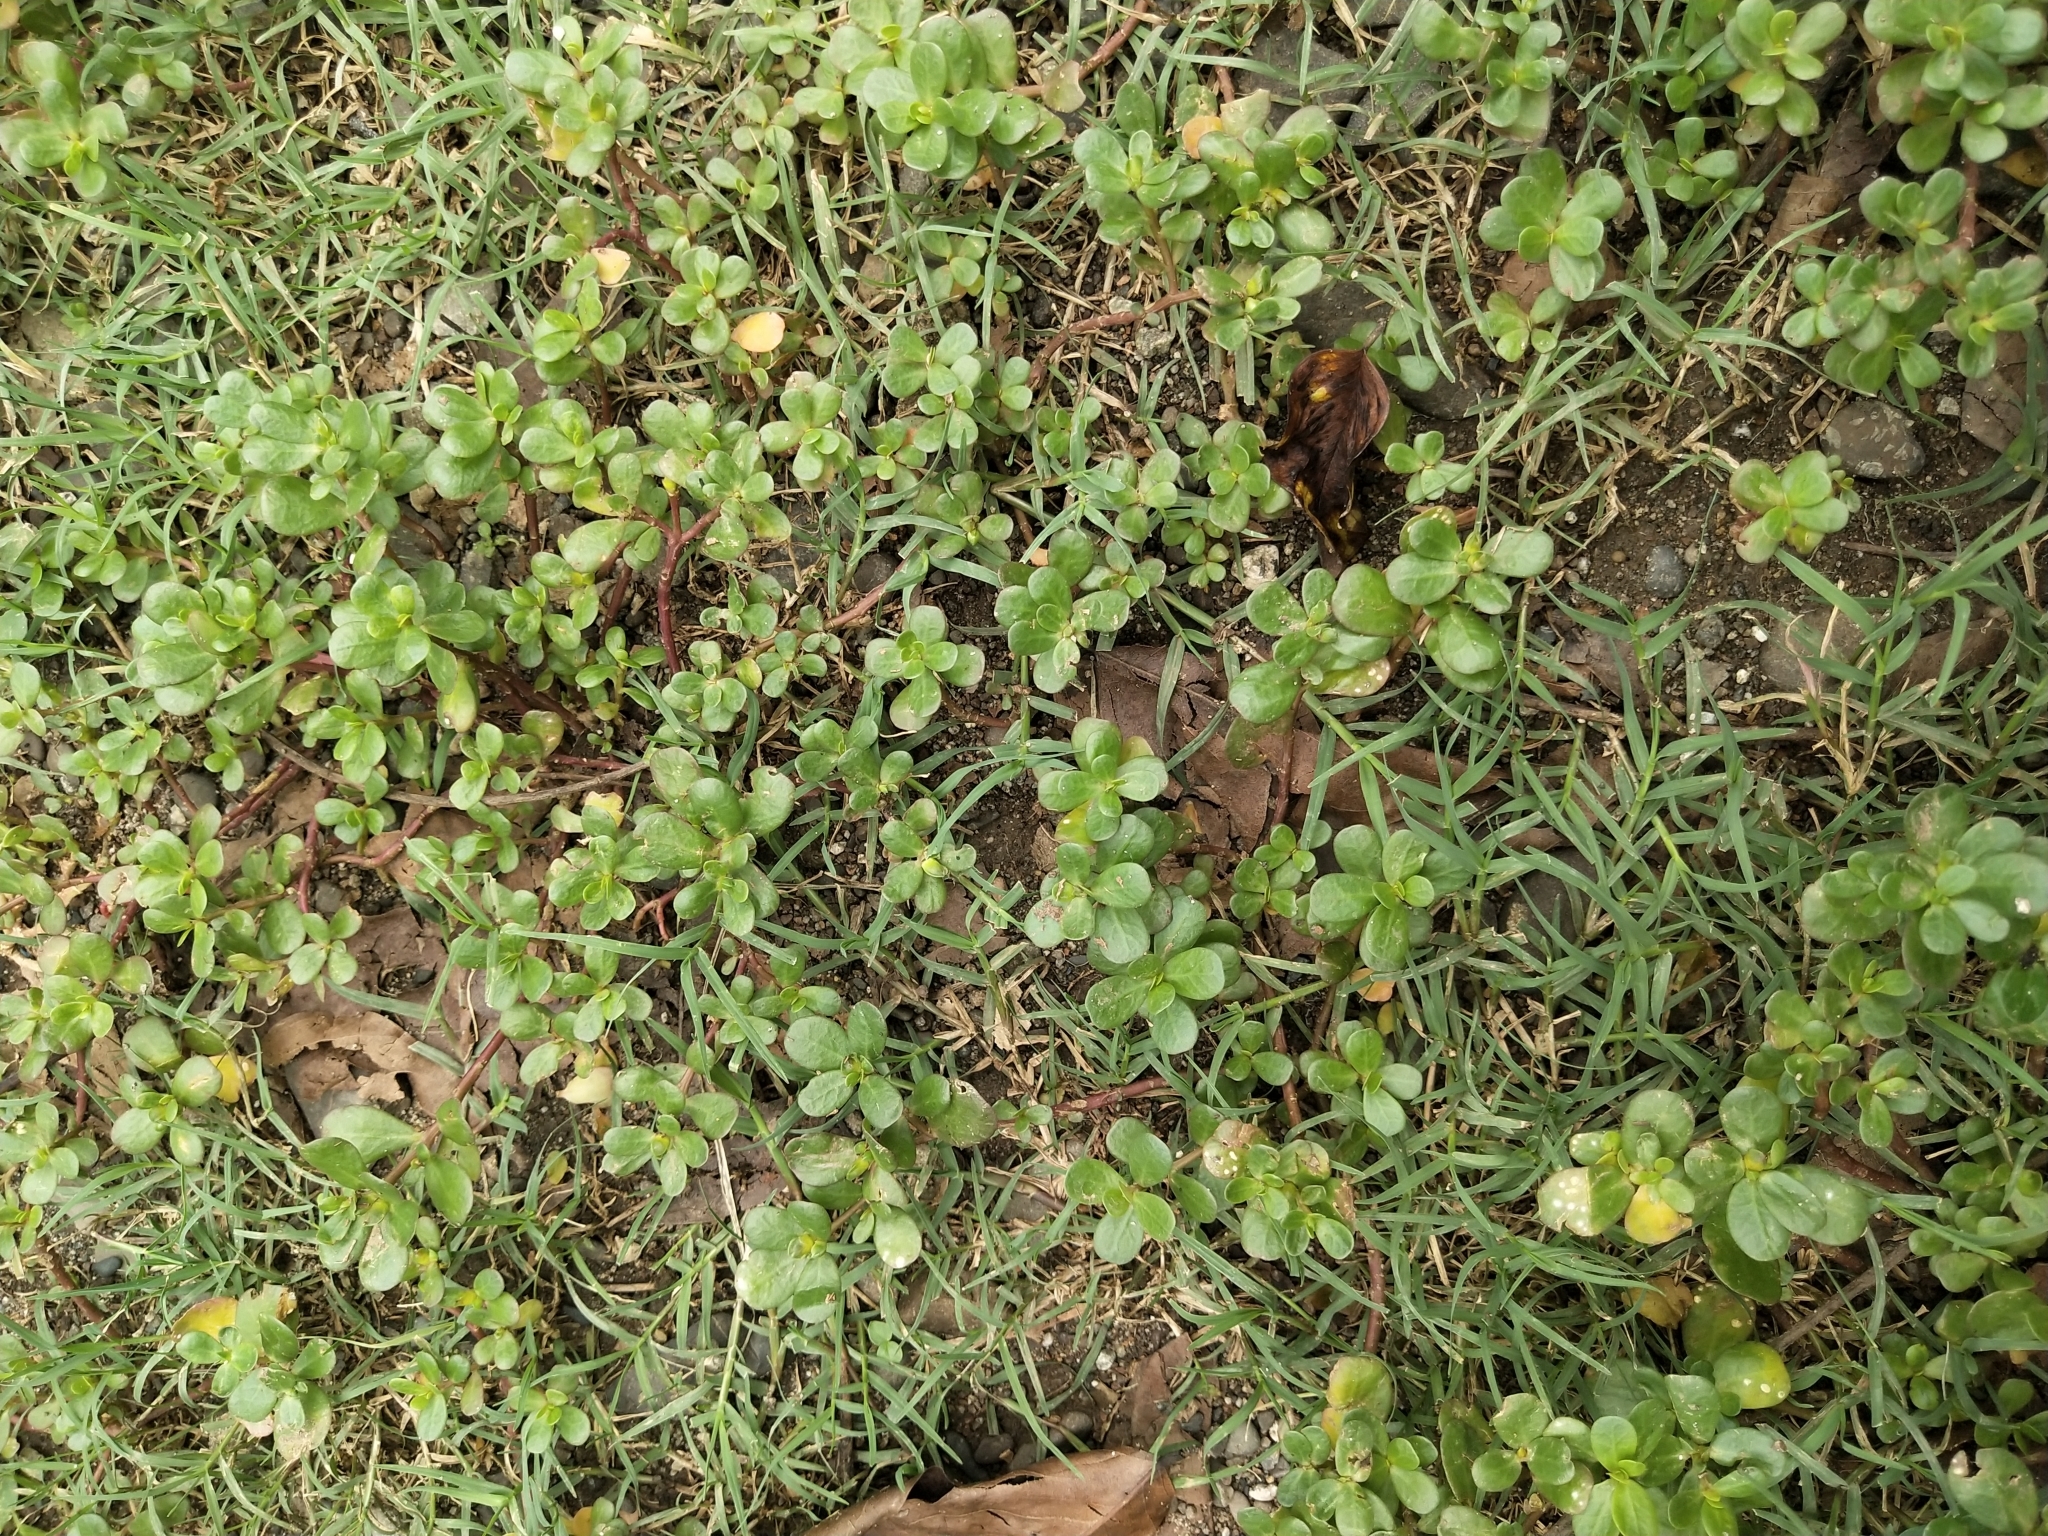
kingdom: Plantae
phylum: Tracheophyta
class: Magnoliopsida
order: Caryophyllales
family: Portulacaceae
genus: Portulaca
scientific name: Portulaca oleracea
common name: Common purslane
